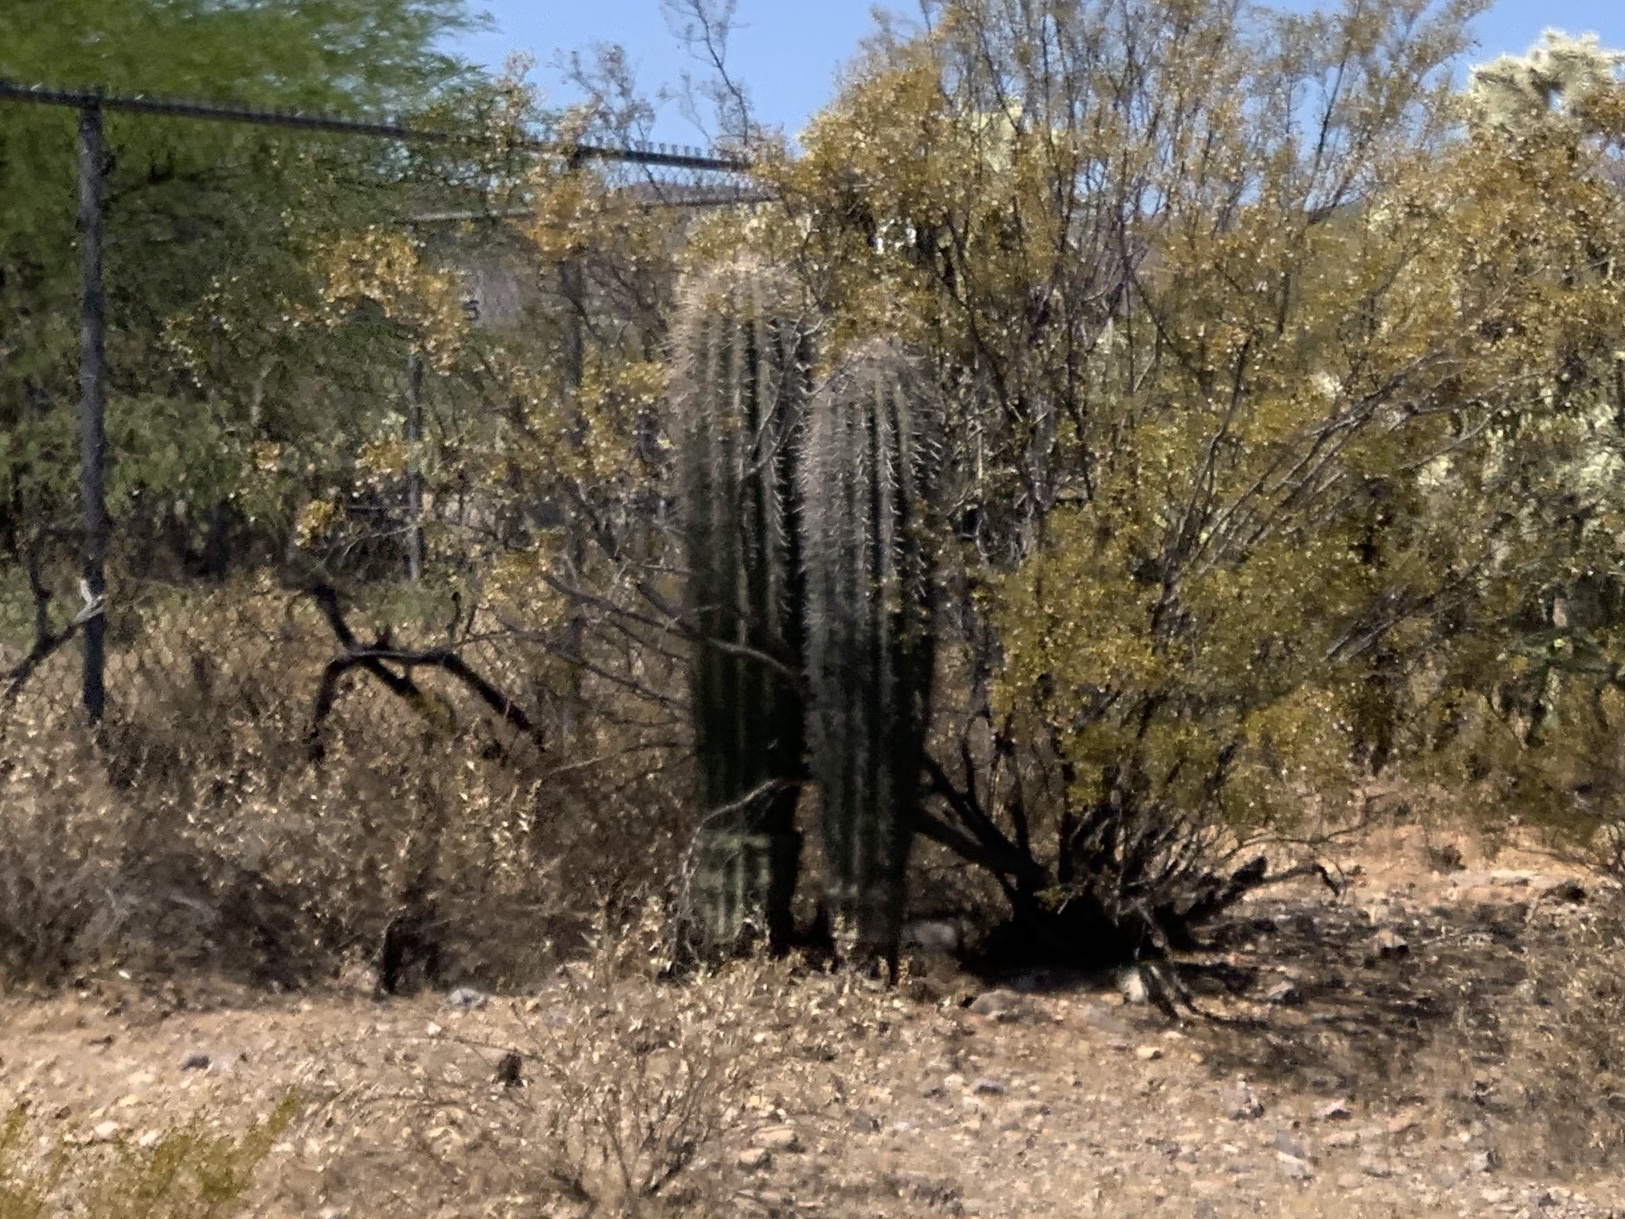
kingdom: Plantae
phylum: Tracheophyta
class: Magnoliopsida
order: Caryophyllales
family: Cactaceae
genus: Carnegiea
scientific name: Carnegiea gigantea
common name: Saguaro
